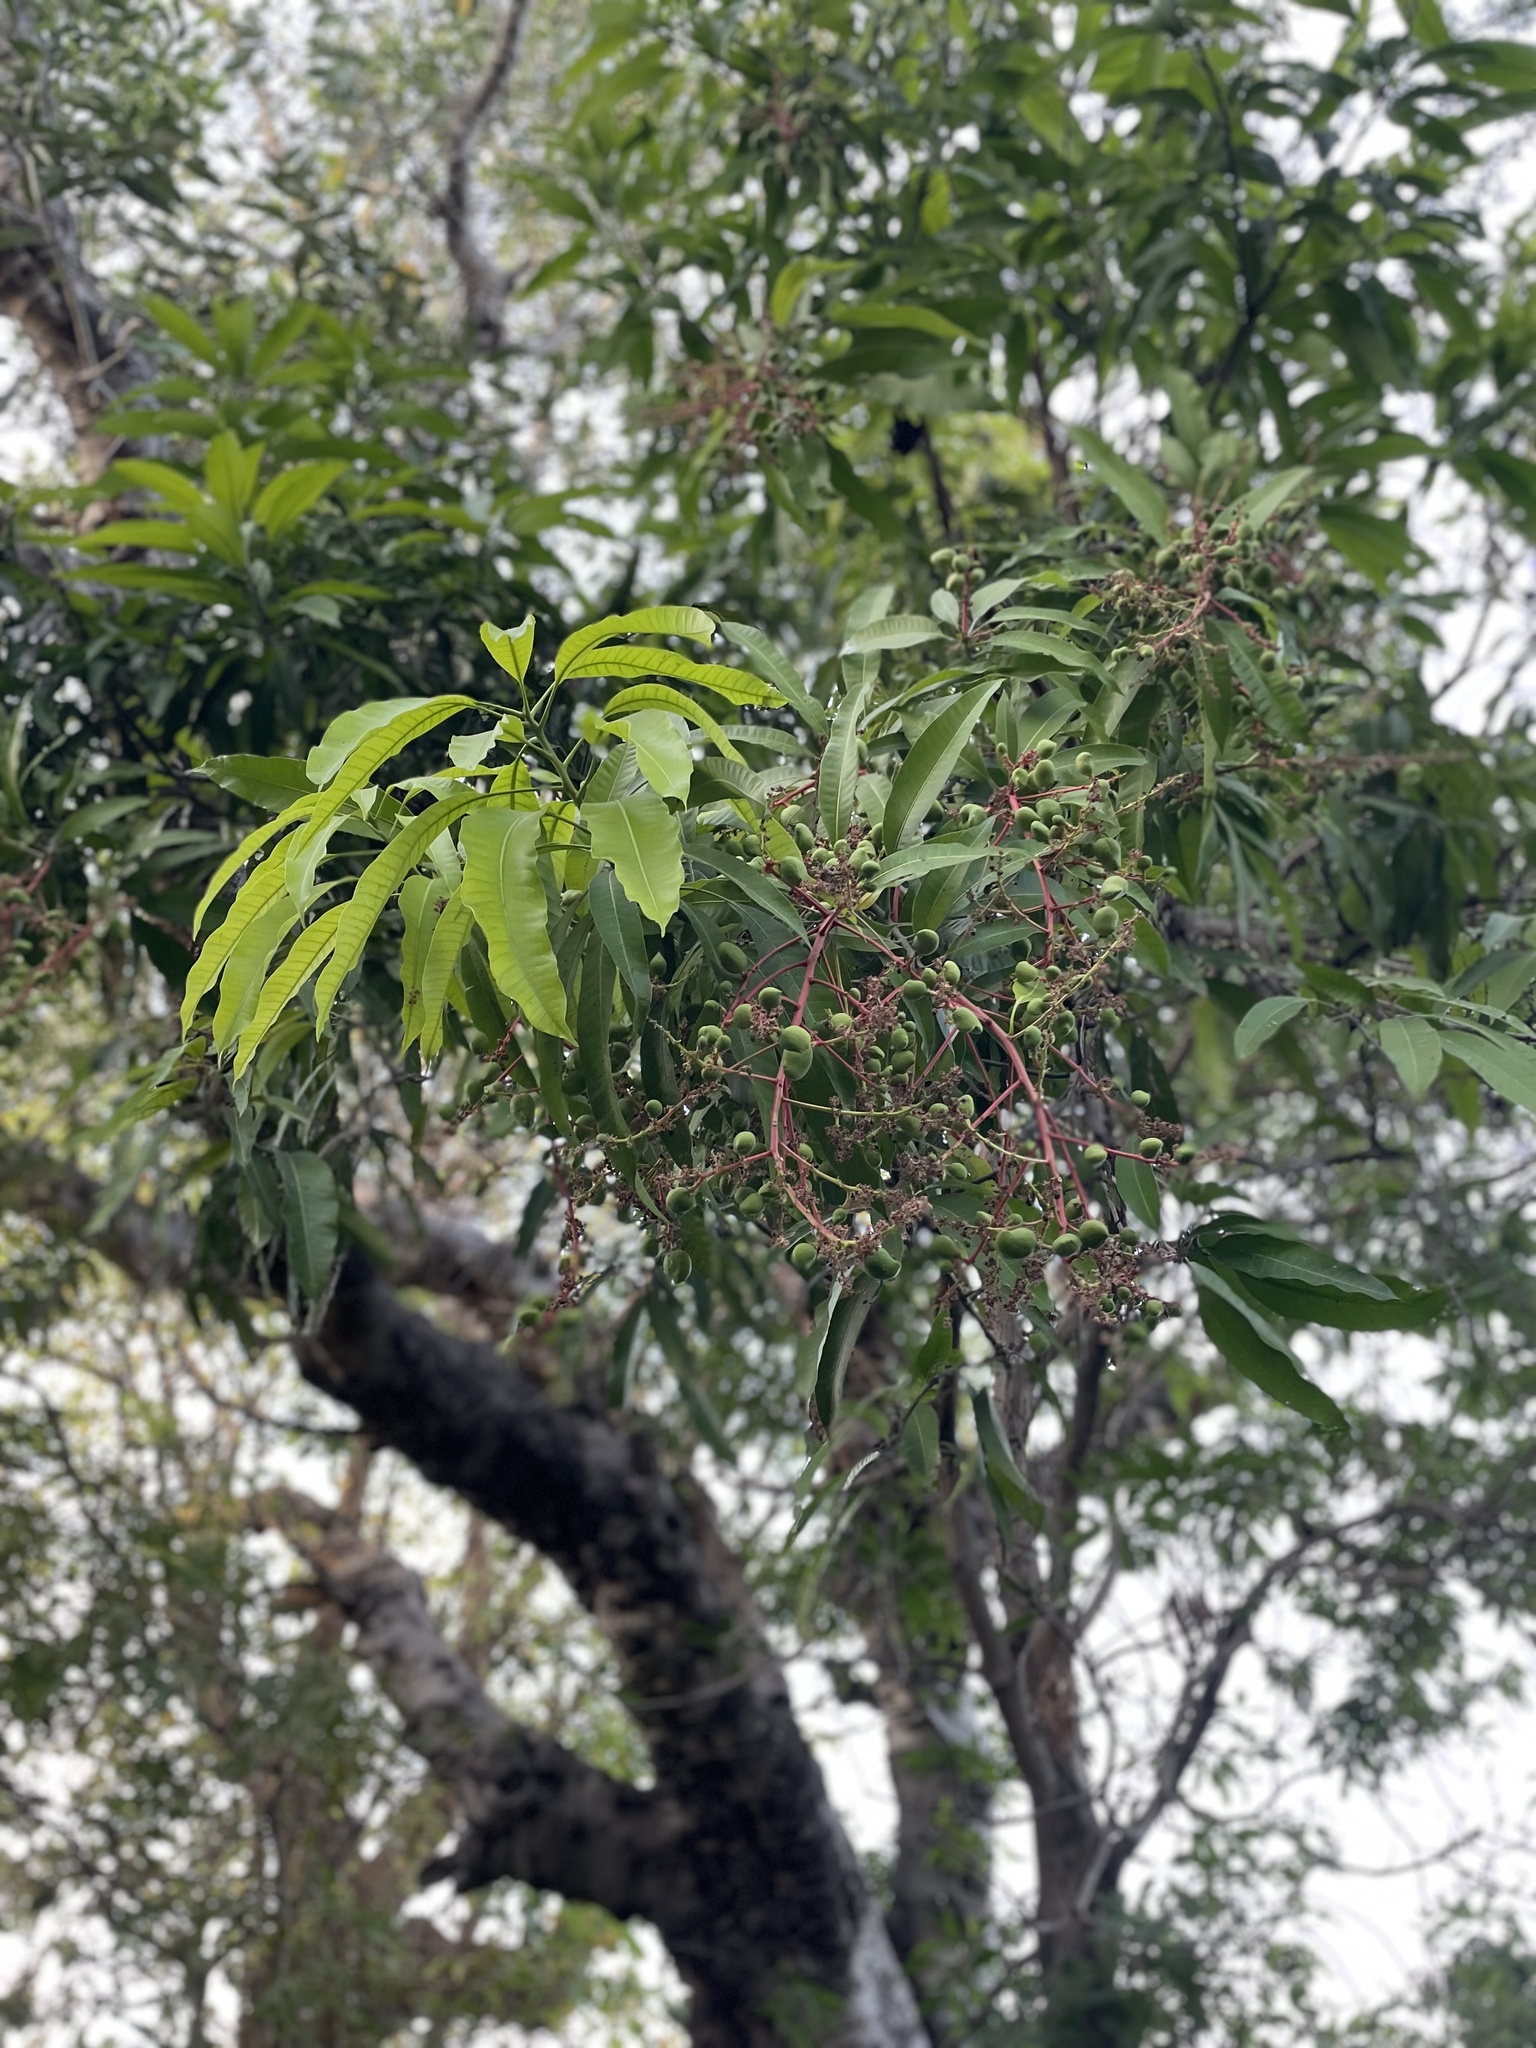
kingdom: Plantae
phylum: Tracheophyta
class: Magnoliopsida
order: Sapindales
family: Anacardiaceae
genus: Mangifera
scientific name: Mangifera indica
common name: Mango
